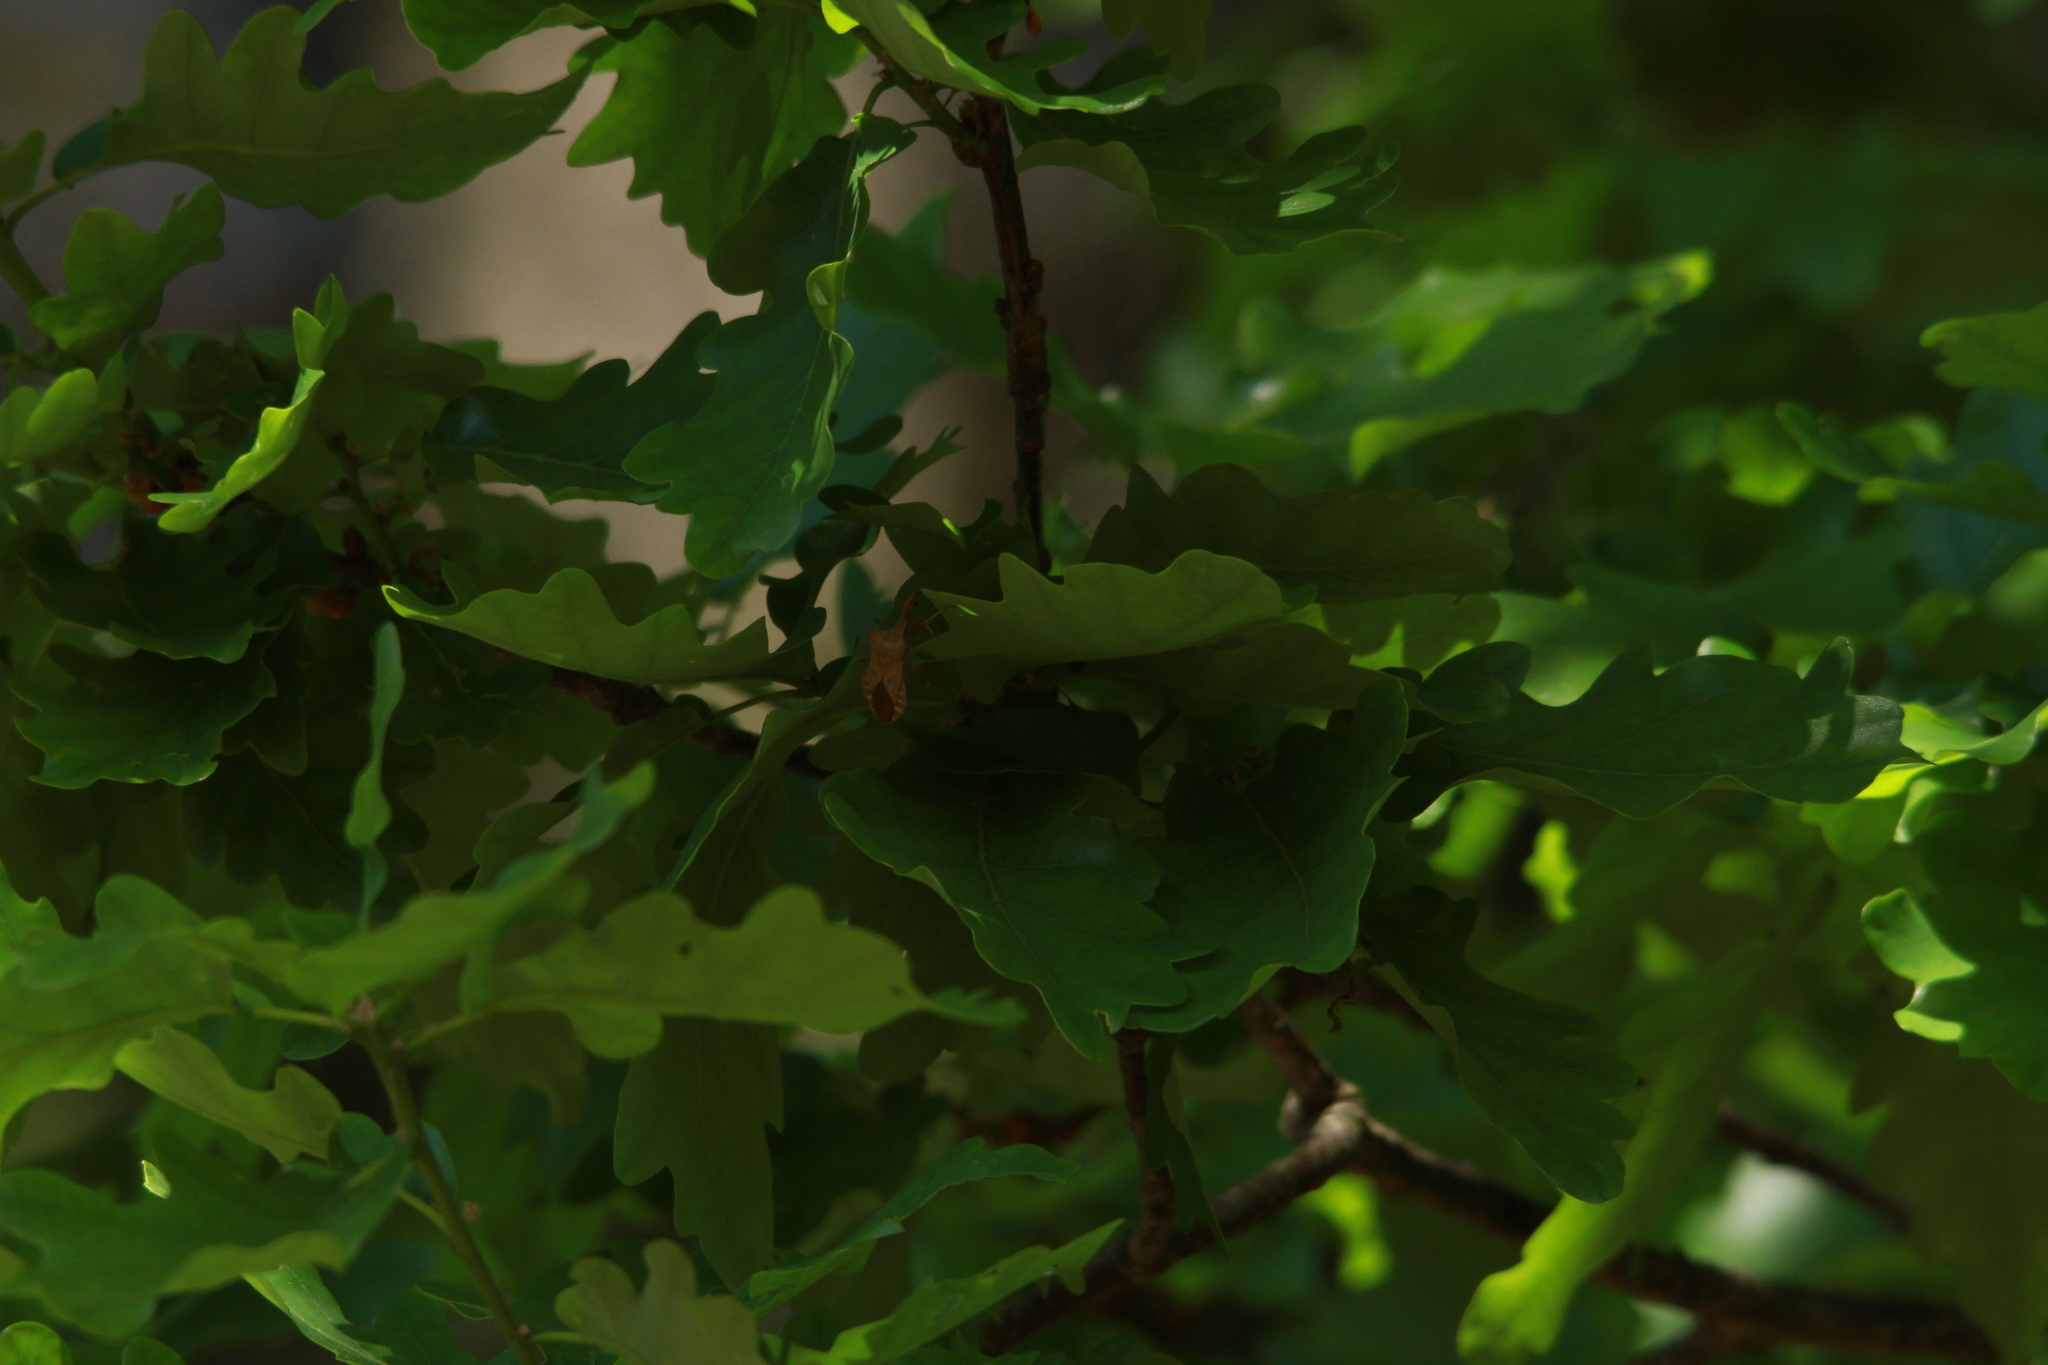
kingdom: Animalia
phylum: Arthropoda
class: Insecta
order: Hemiptera
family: Coreidae
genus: Coreus
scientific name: Coreus marginatus
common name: Dock bug
